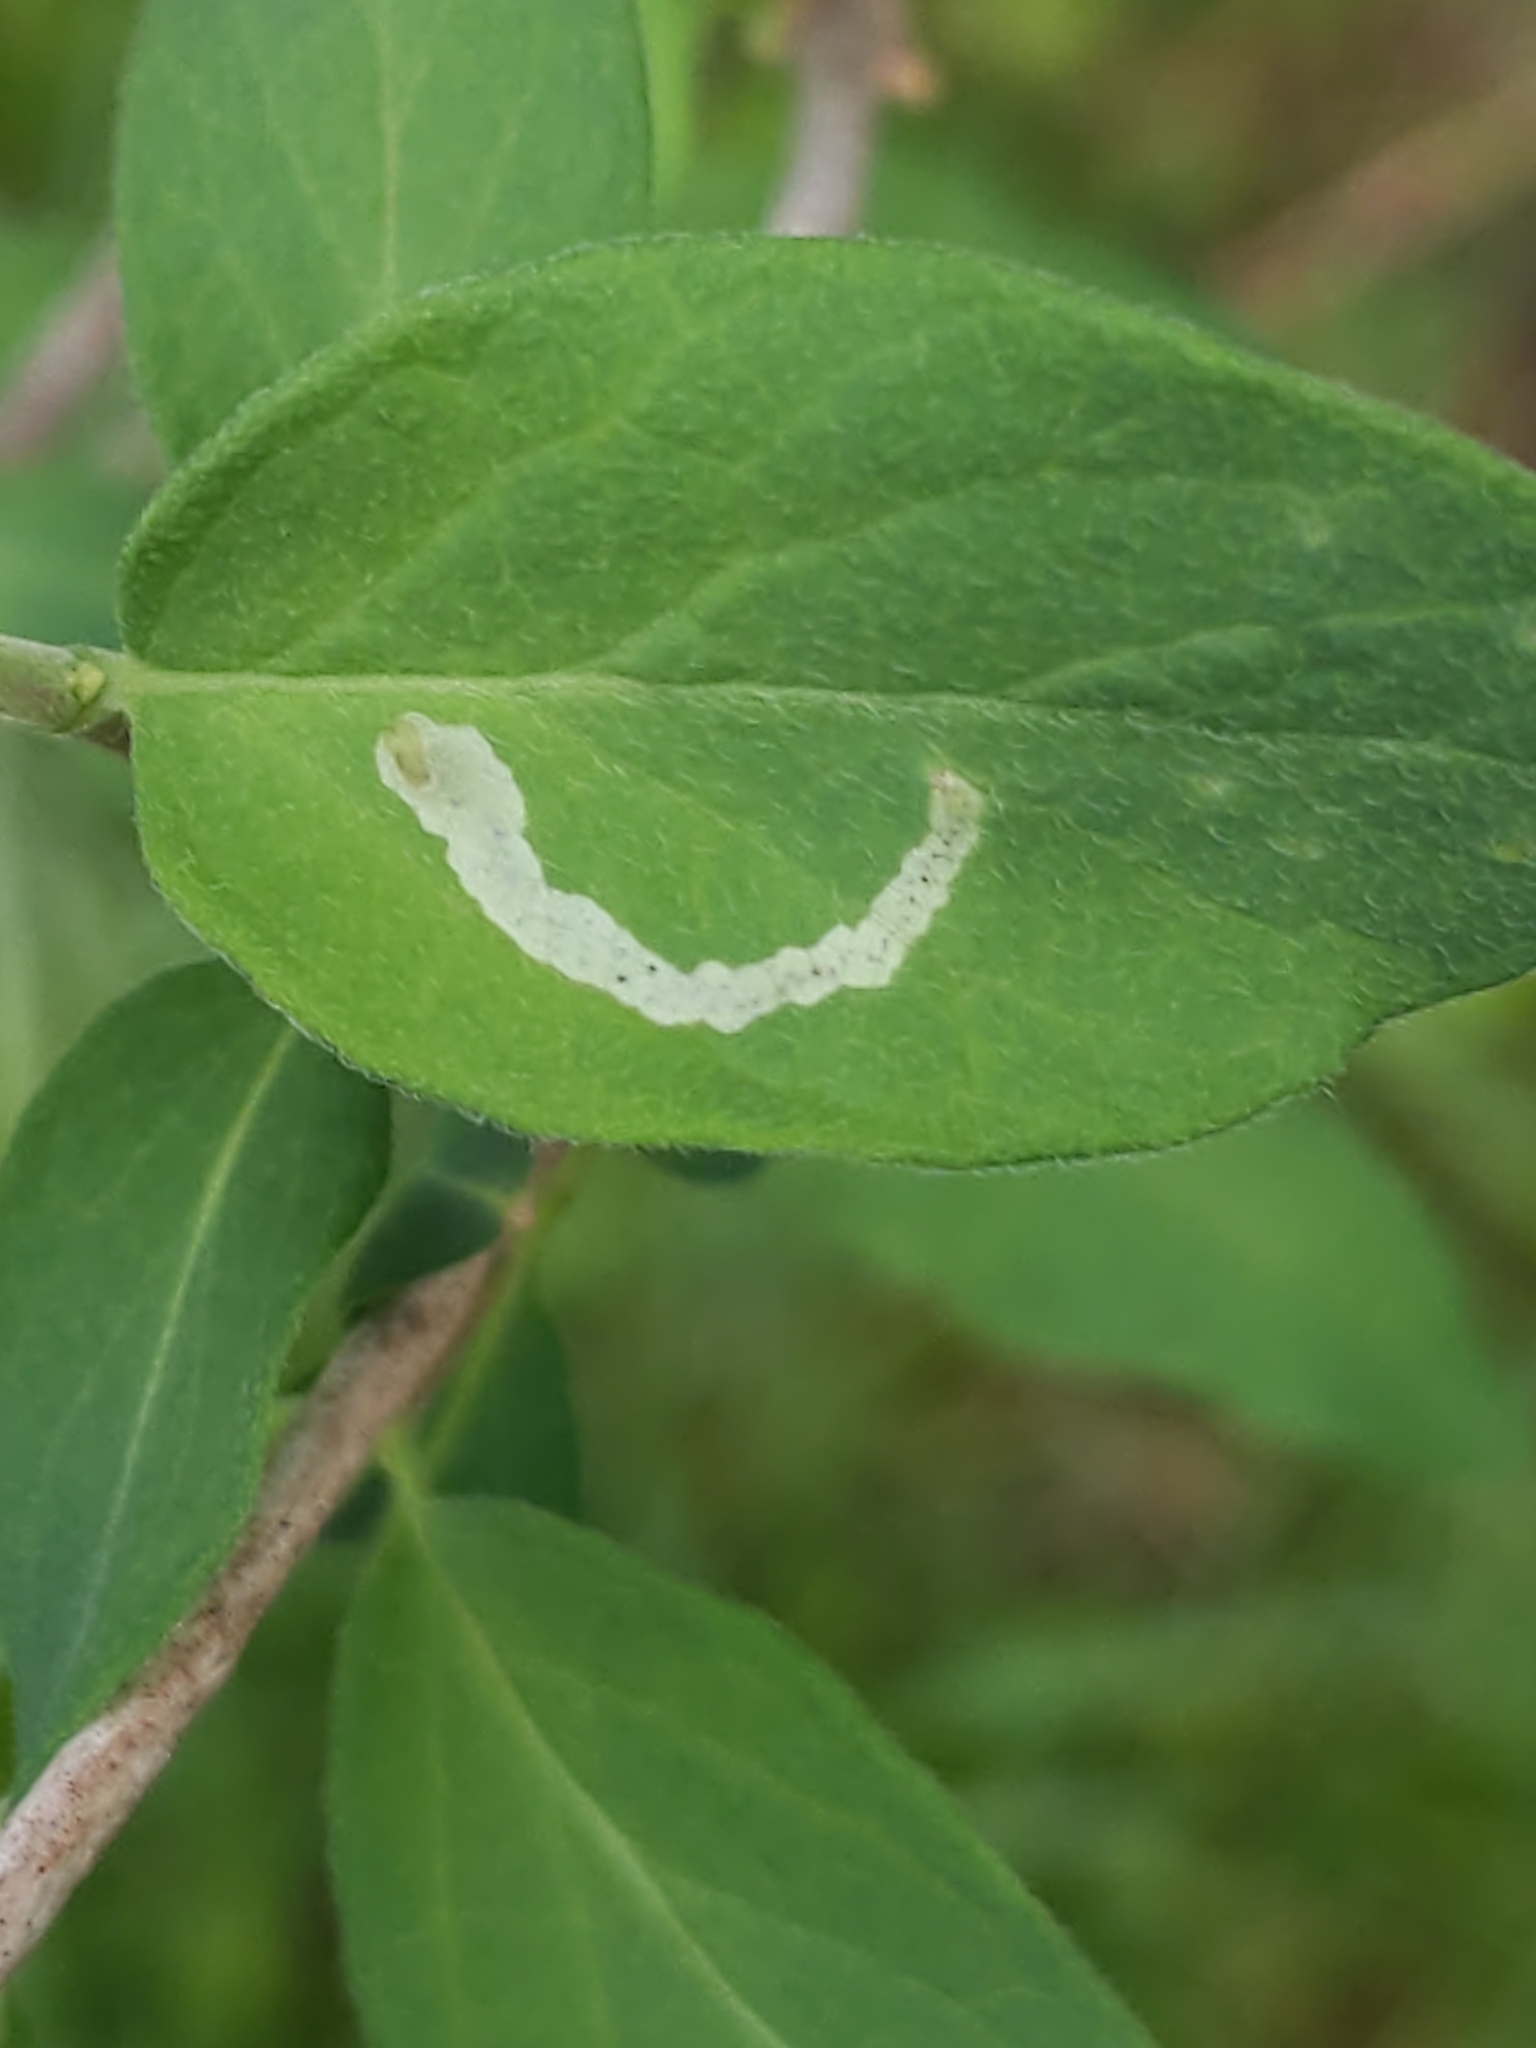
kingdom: Animalia
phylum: Arthropoda
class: Insecta
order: Diptera
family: Agromyzidae
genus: Aulagromyza
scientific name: Aulagromyza cornigera
